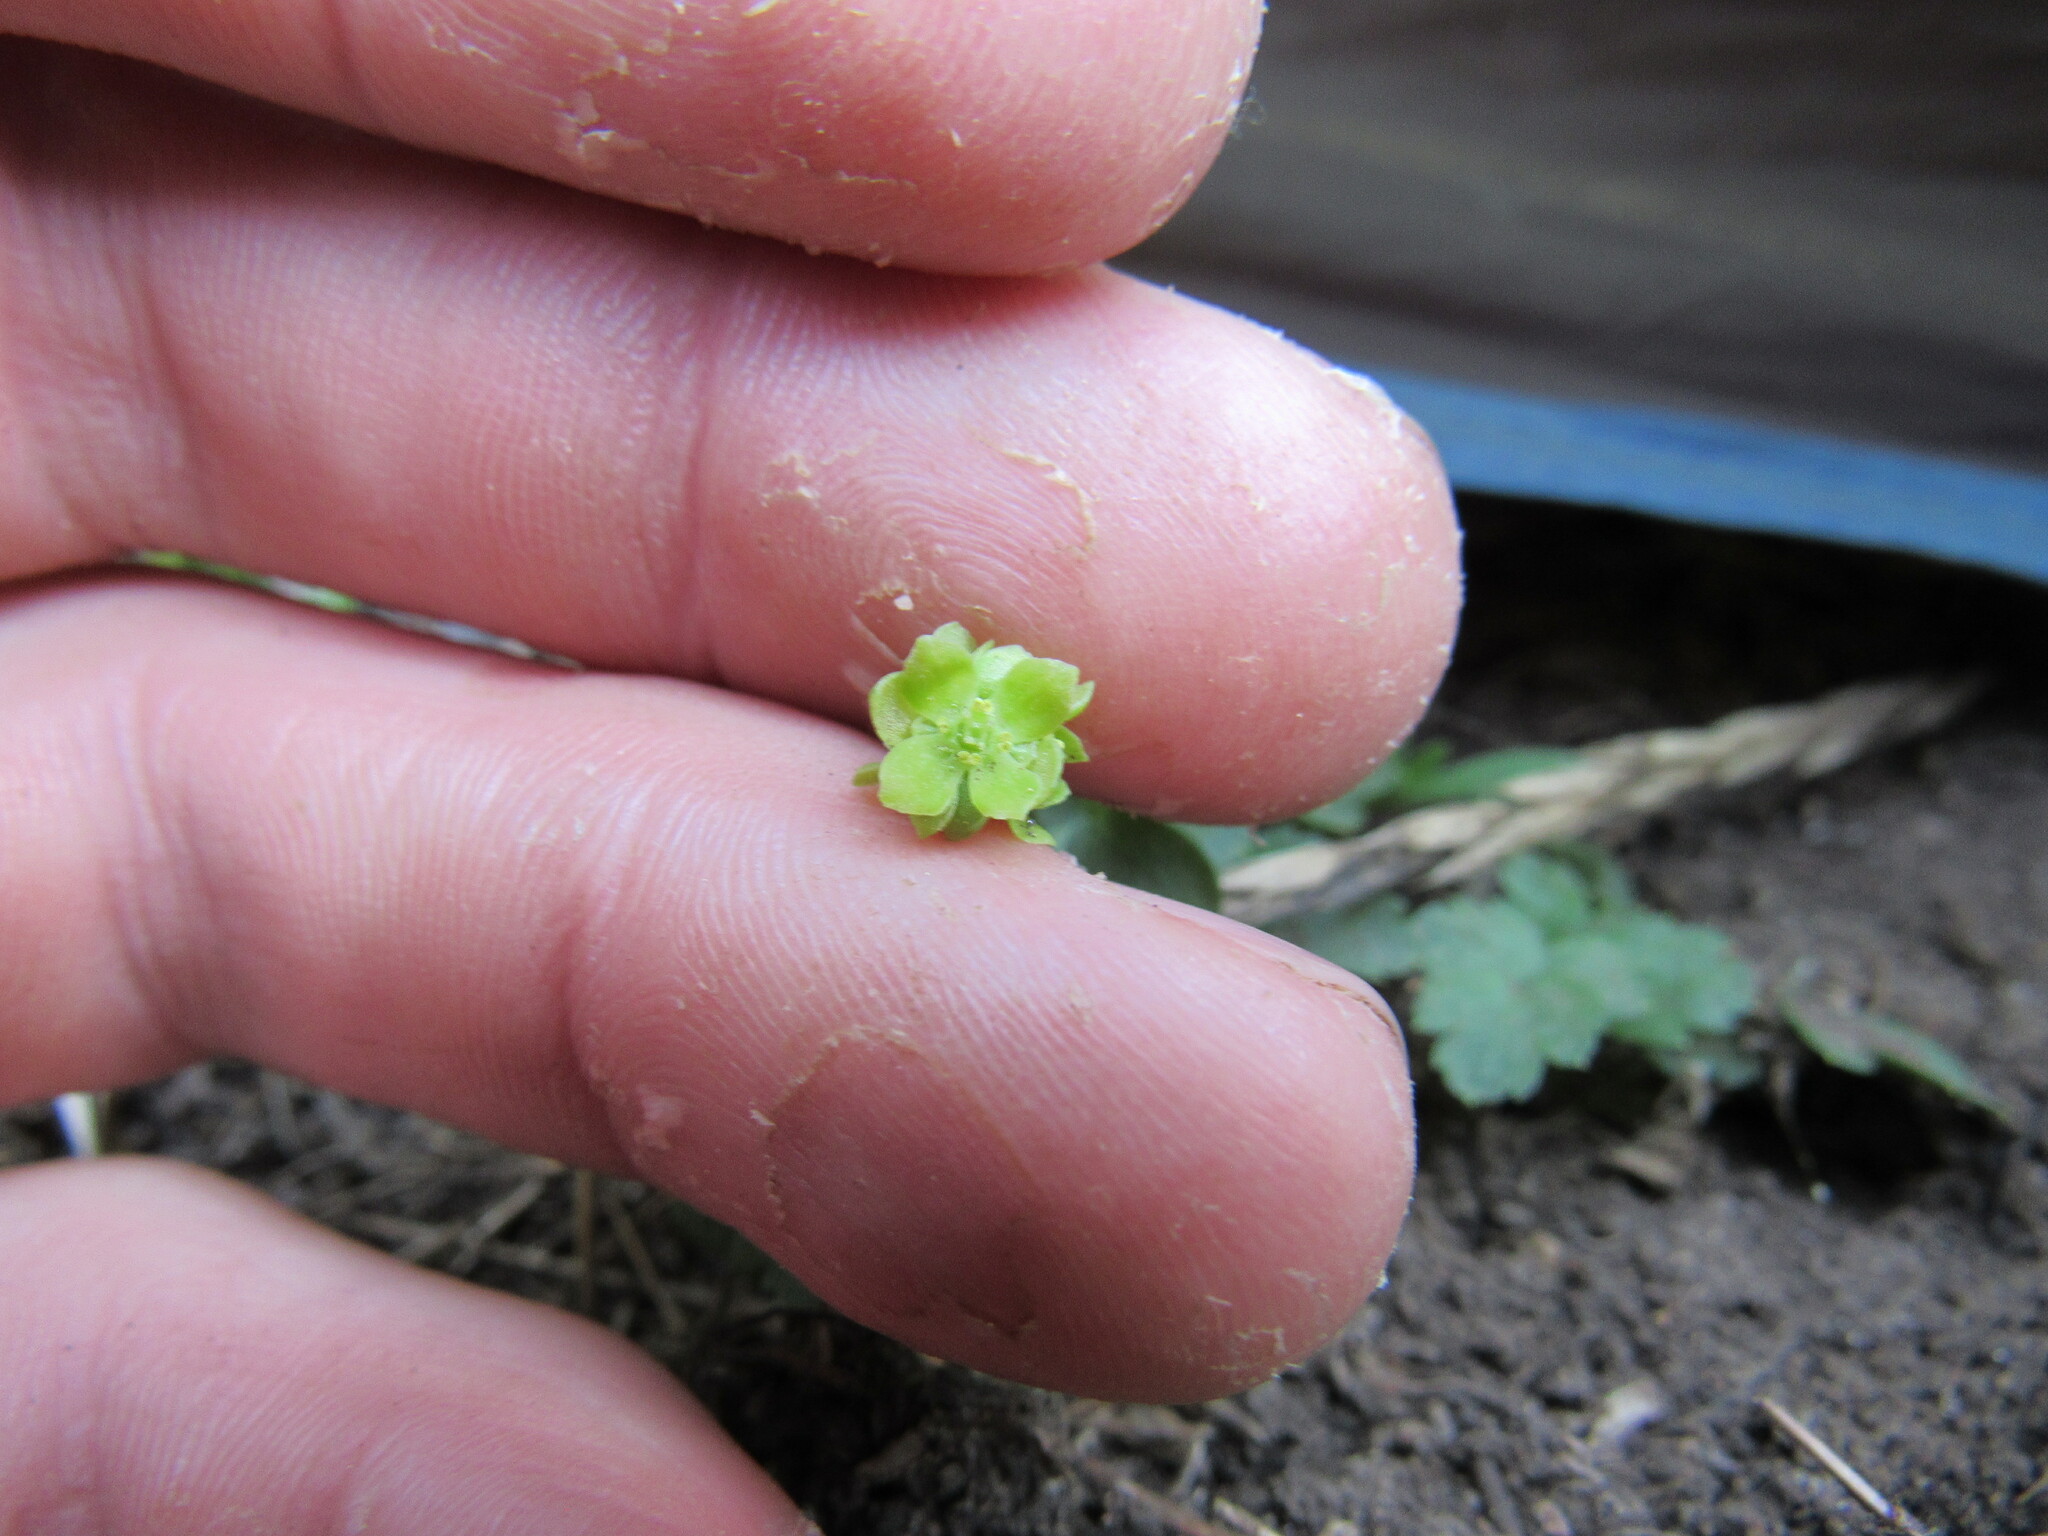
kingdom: Plantae
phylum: Tracheophyta
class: Magnoliopsida
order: Dipsacales
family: Viburnaceae
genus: Adoxa
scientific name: Adoxa moschatellina
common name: Moschatel
